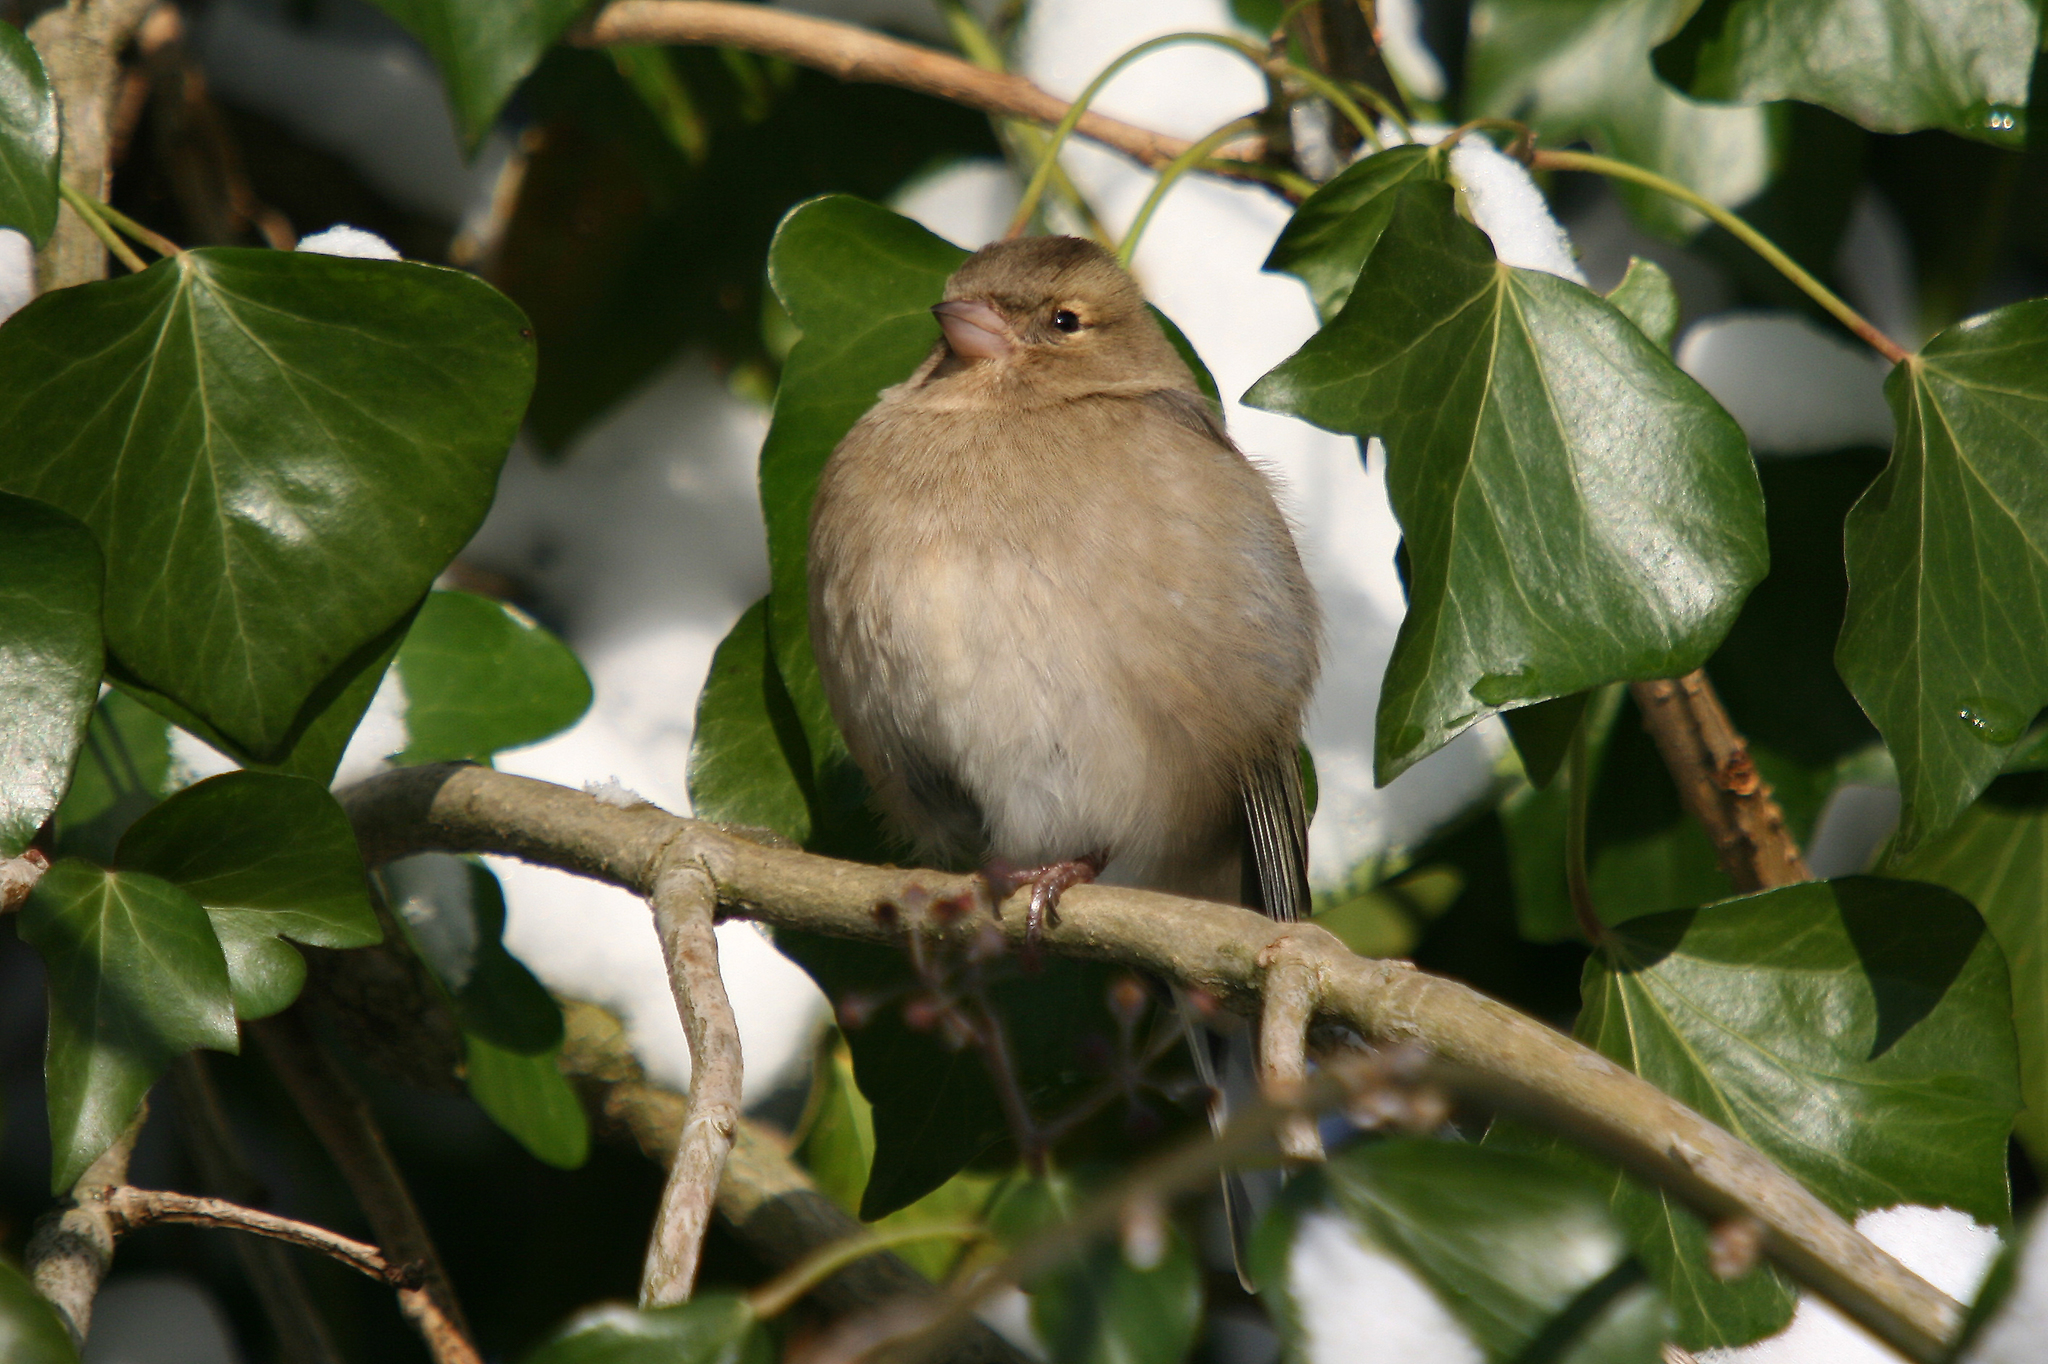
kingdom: Animalia
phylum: Chordata
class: Aves
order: Passeriformes
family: Fringillidae
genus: Fringilla
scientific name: Fringilla coelebs
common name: Common chaffinch
